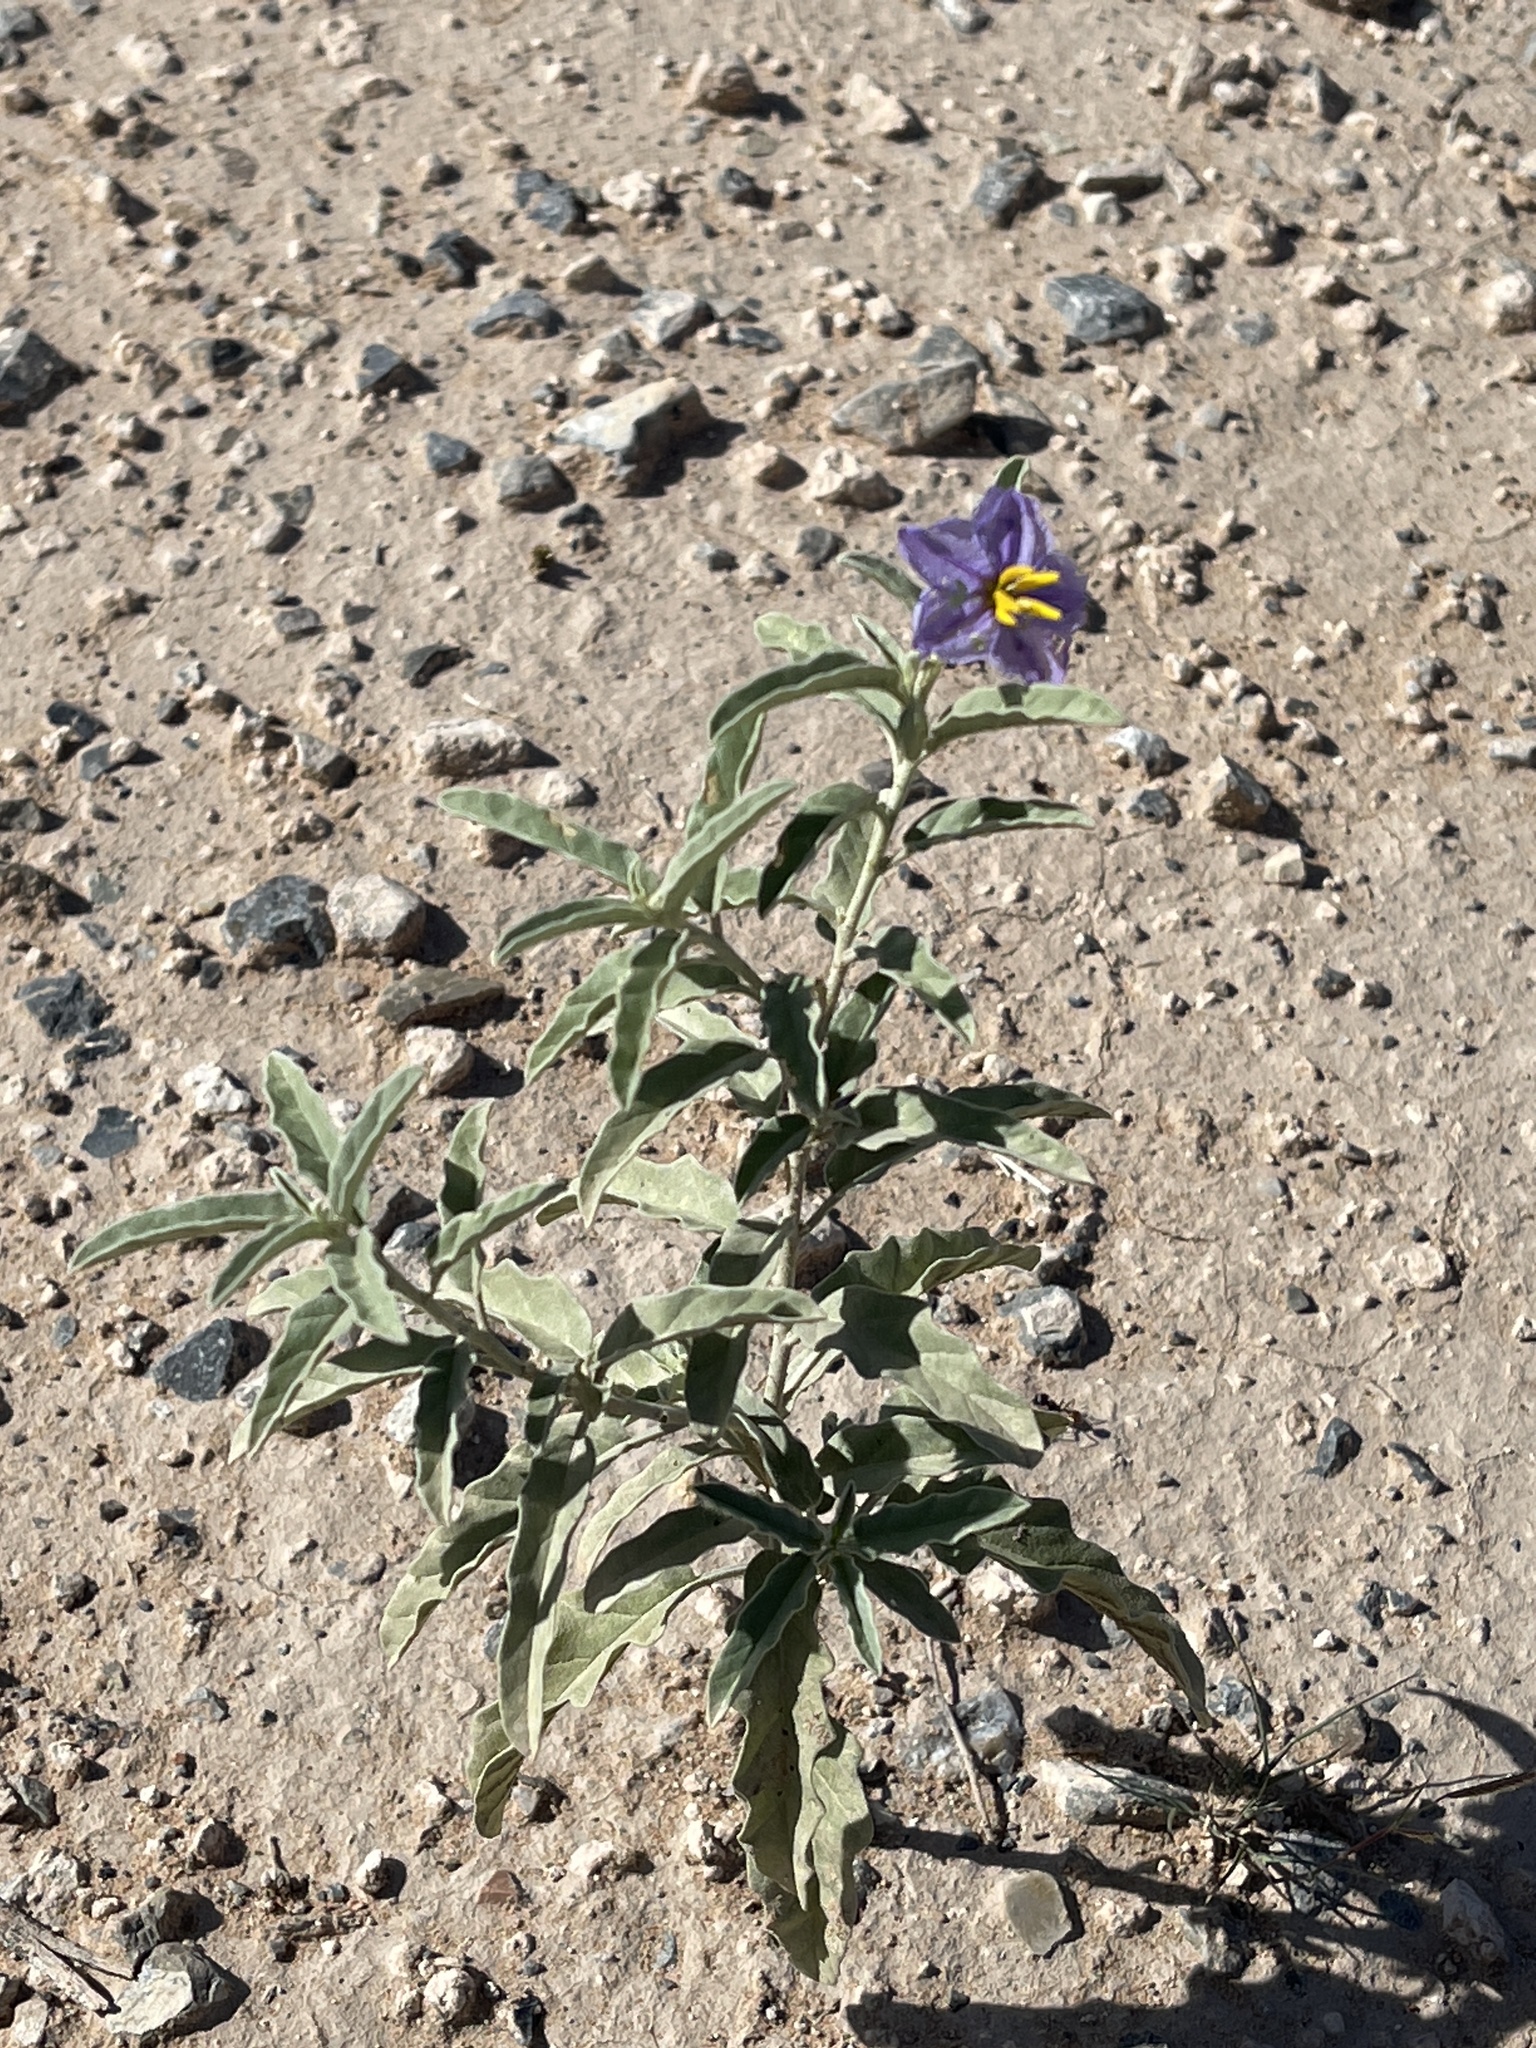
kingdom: Plantae
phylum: Tracheophyta
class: Magnoliopsida
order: Solanales
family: Solanaceae
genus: Solanum
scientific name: Solanum elaeagnifolium
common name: Silverleaf nightshade
